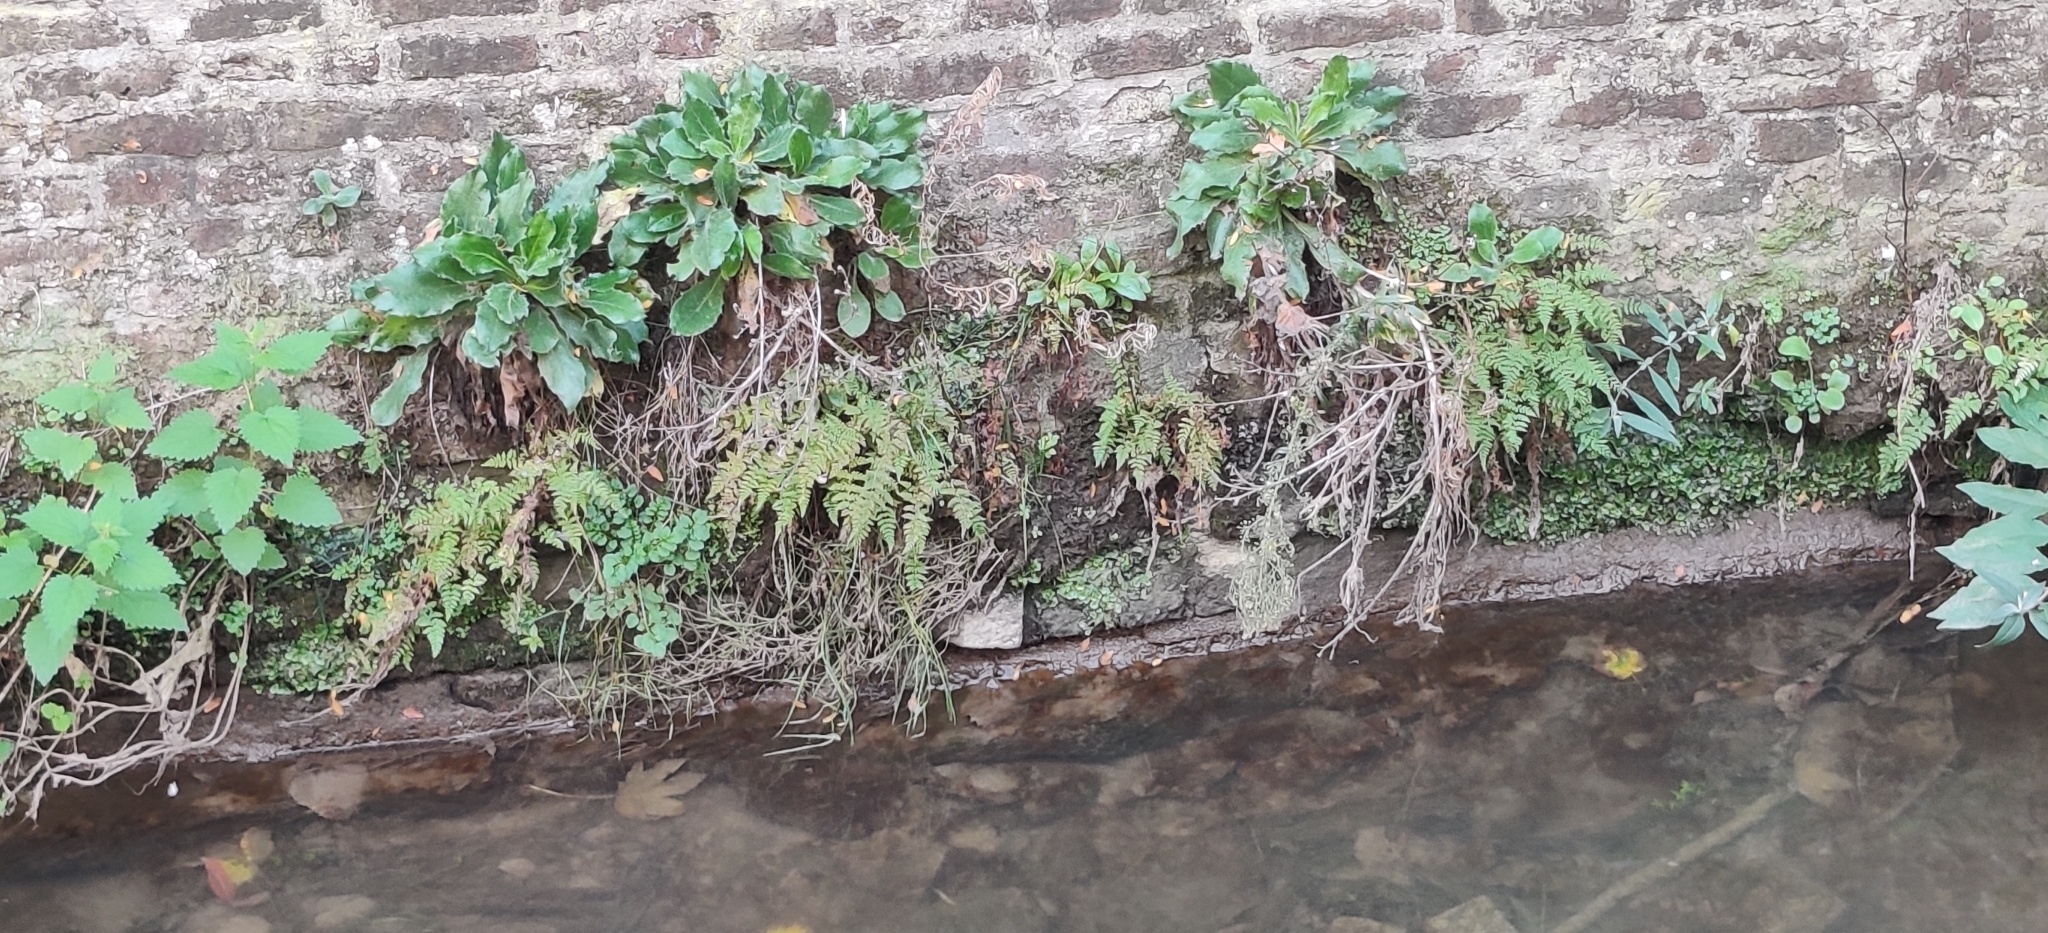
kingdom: Plantae
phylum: Tracheophyta
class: Polypodiopsida
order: Polypodiales
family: Cystopteridaceae
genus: Cystopteris
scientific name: Cystopteris fragilis
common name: Brittle bladder fern
